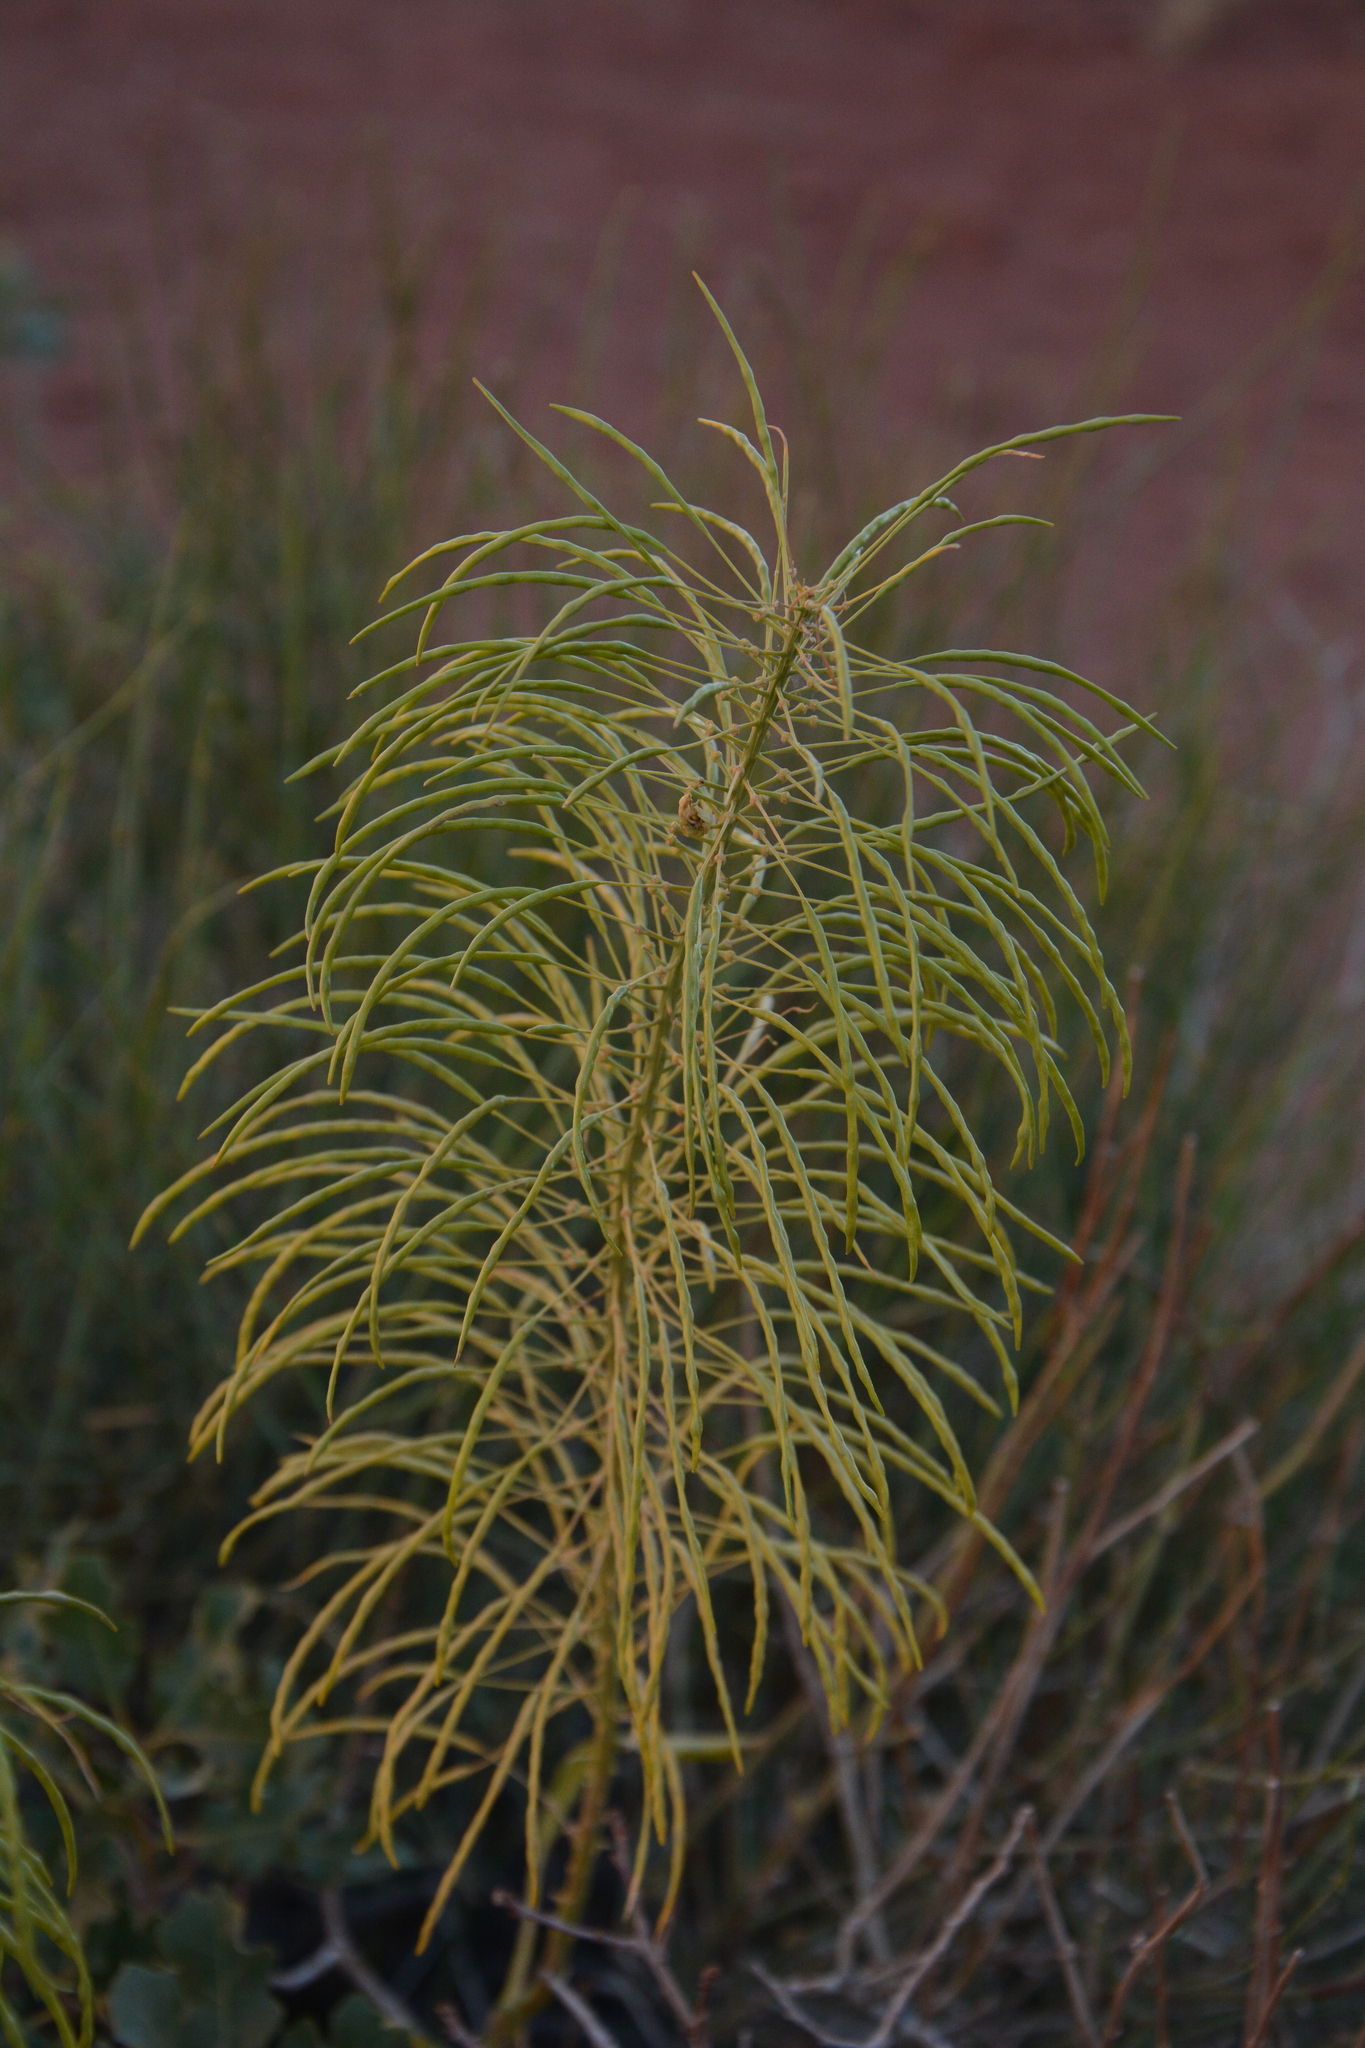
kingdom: Plantae
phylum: Tracheophyta
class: Magnoliopsida
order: Brassicales
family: Brassicaceae
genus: Stanleya
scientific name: Stanleya pinnata
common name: Prince's-plume
